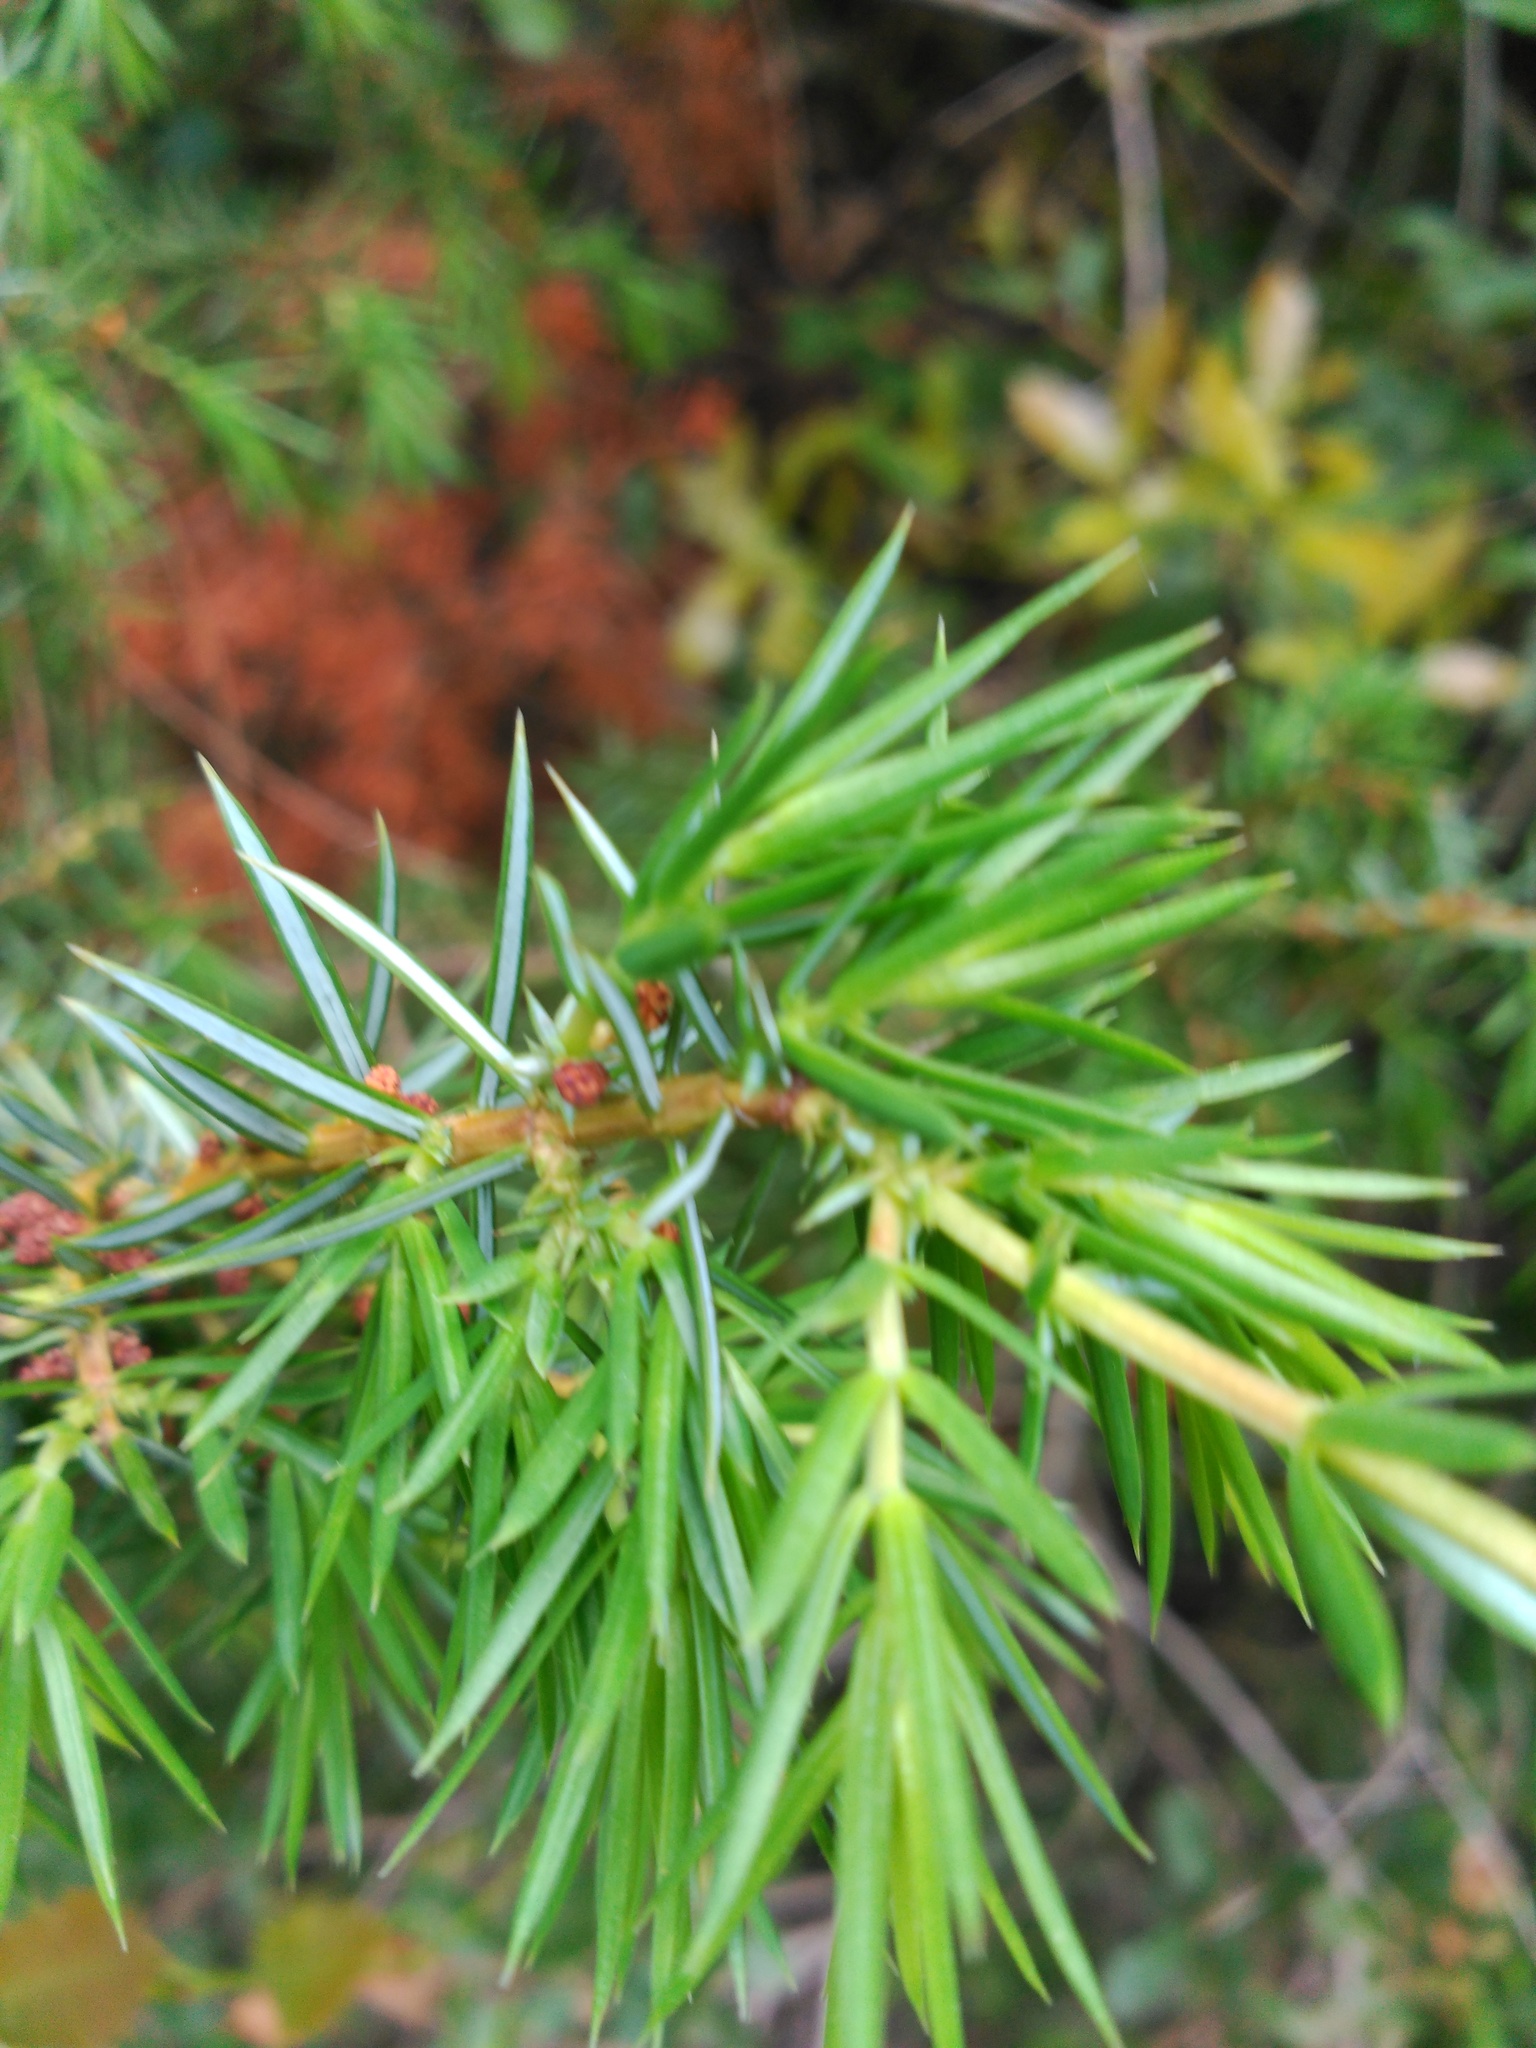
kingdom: Plantae
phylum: Tracheophyta
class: Pinopsida
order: Pinales
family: Cupressaceae
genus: Juniperus
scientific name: Juniperus communis
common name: Common juniper
